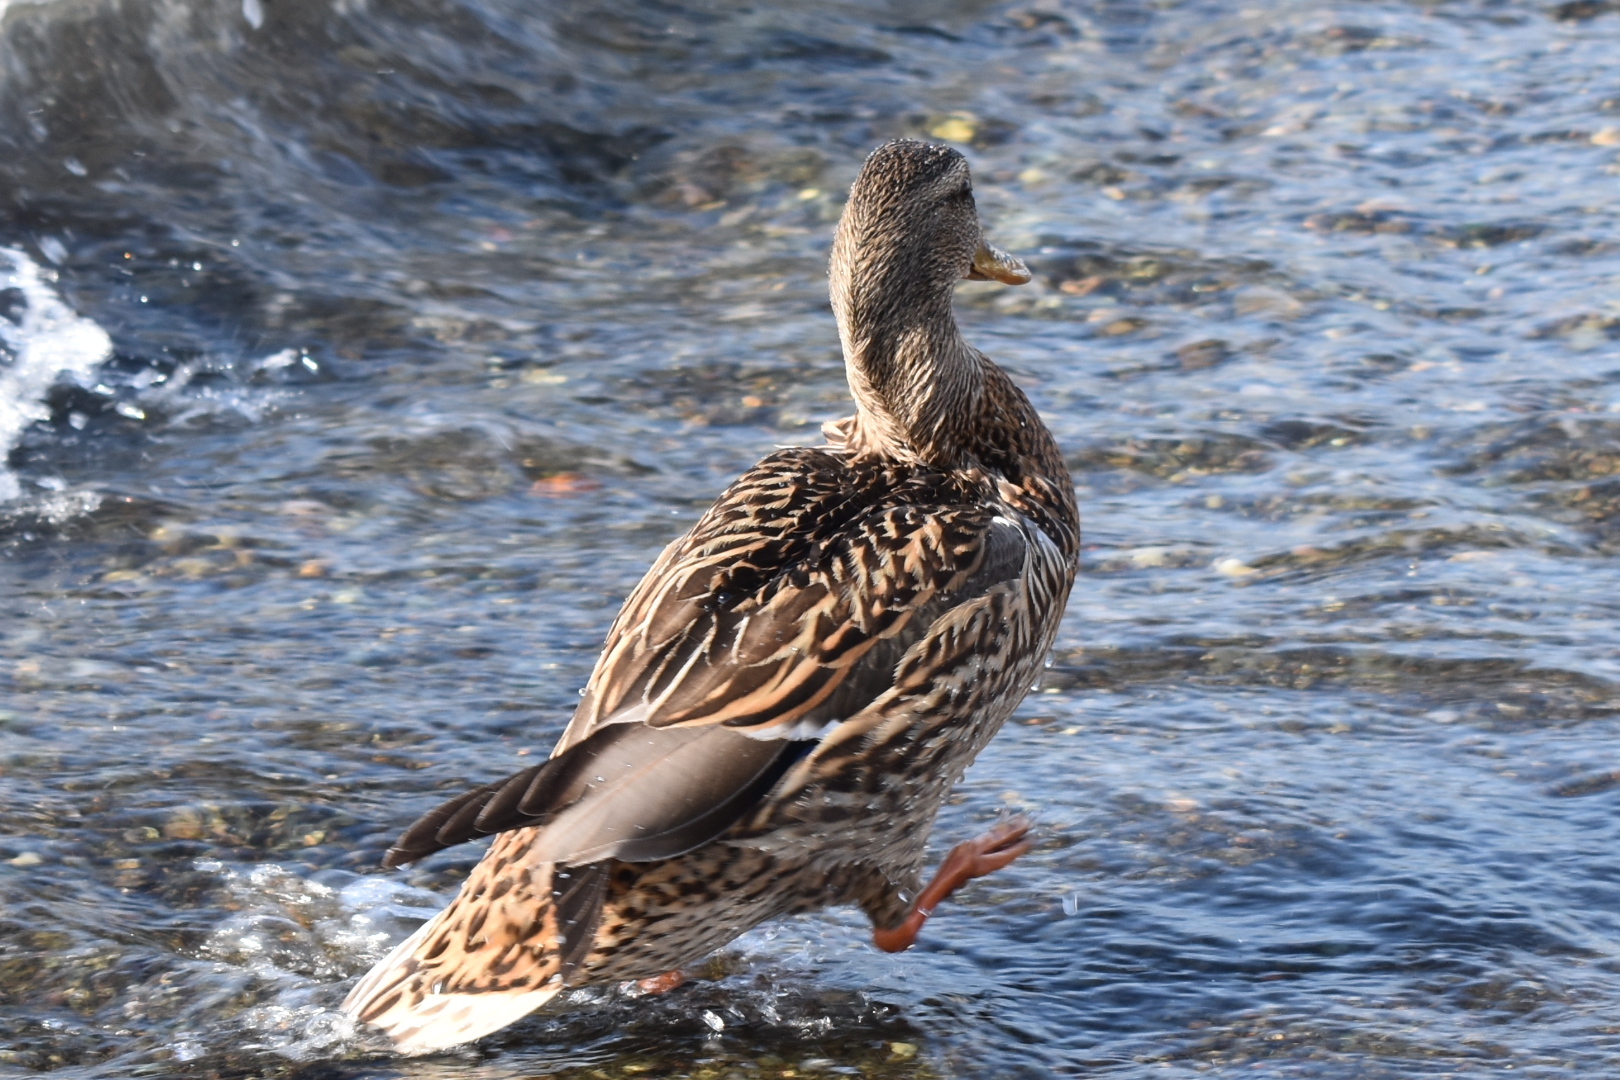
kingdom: Animalia
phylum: Chordata
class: Aves
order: Anseriformes
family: Anatidae
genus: Anas
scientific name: Anas platyrhynchos
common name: Mallard
